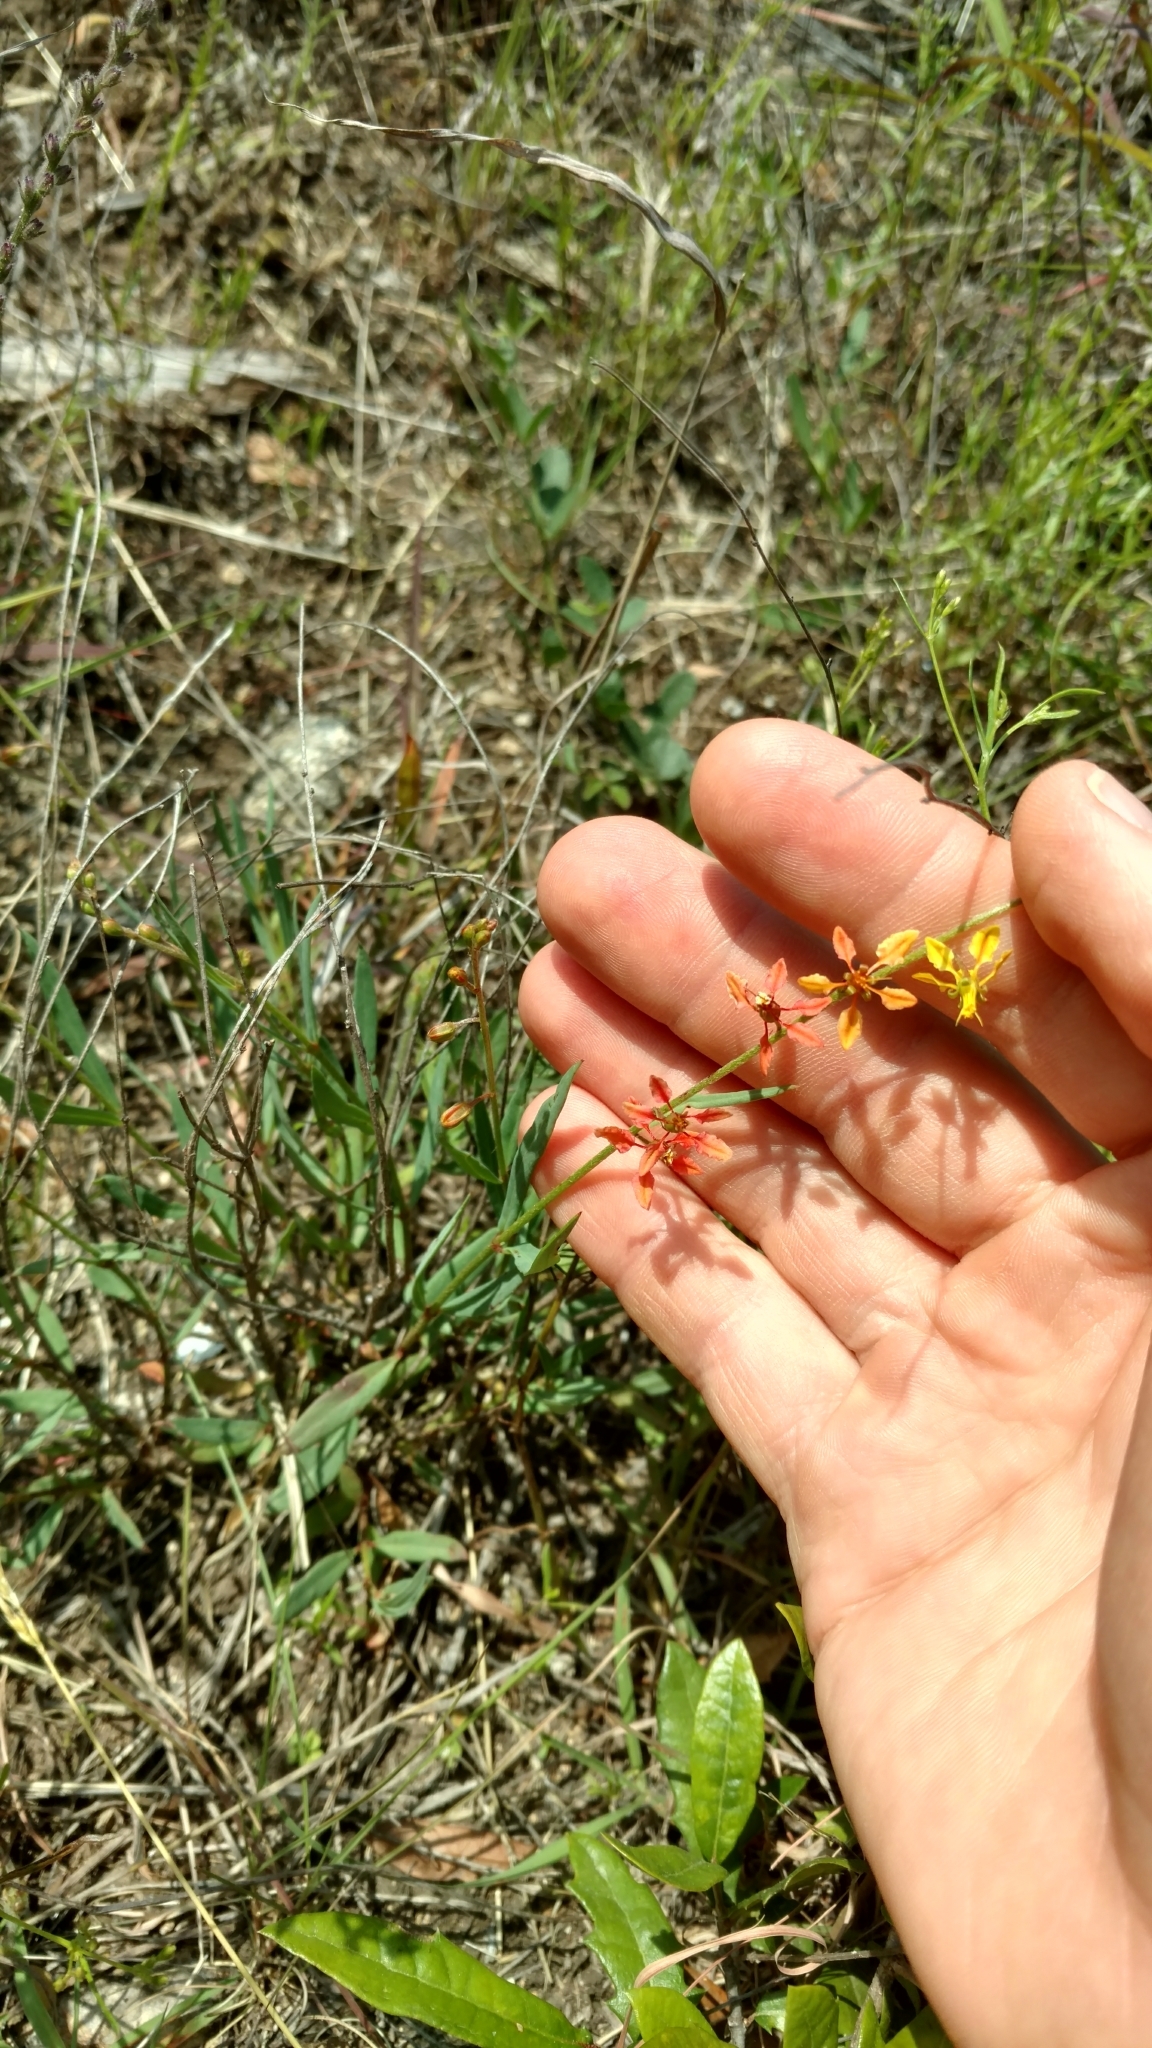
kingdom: Plantae
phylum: Tracheophyta
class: Magnoliopsida
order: Malpighiales
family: Malpighiaceae
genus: Galphimia
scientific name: Galphimia angustifolia
